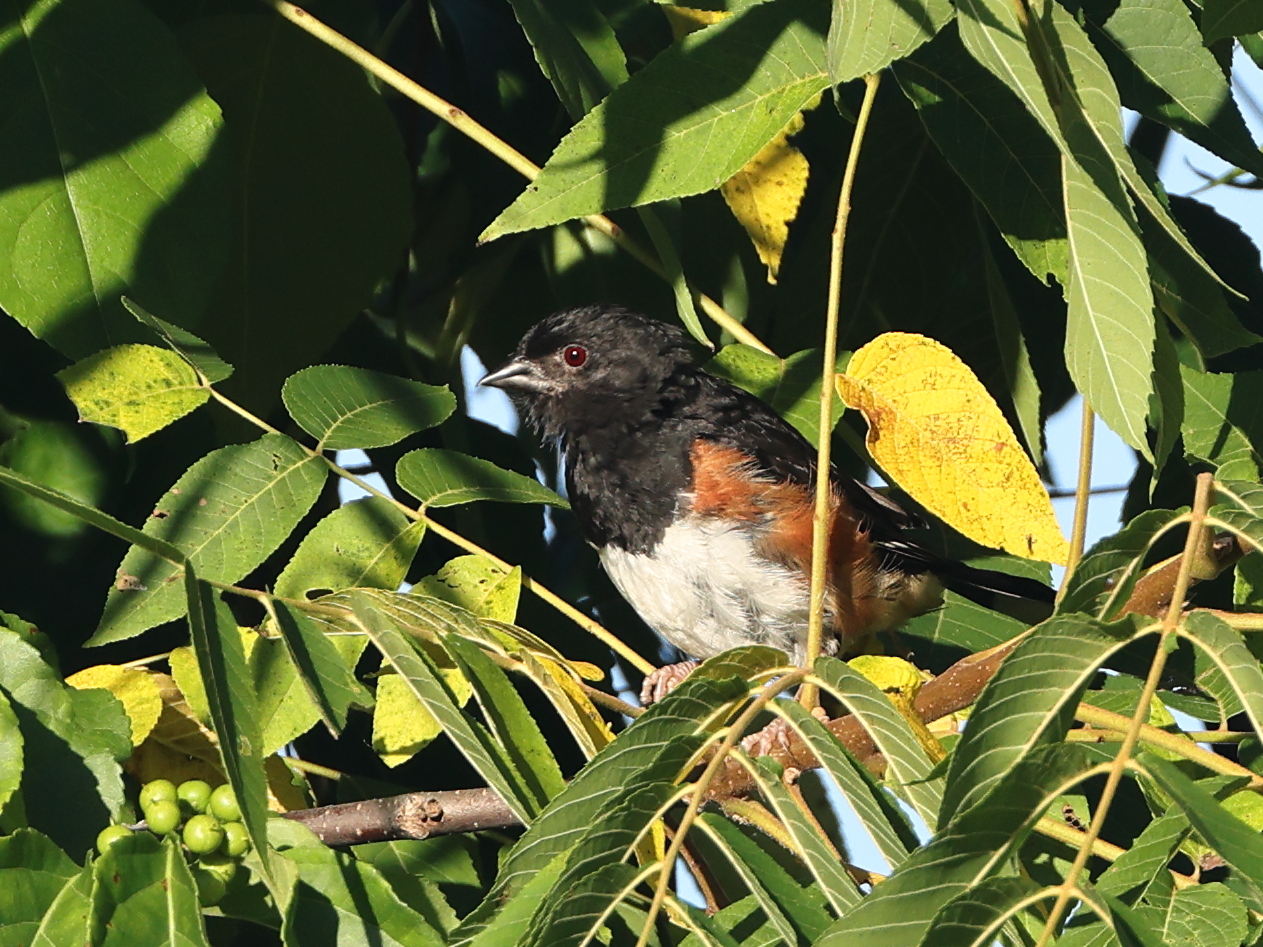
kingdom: Animalia
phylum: Chordata
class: Aves
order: Passeriformes
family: Passerellidae
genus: Pipilo
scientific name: Pipilo erythrophthalmus
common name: Eastern towhee
